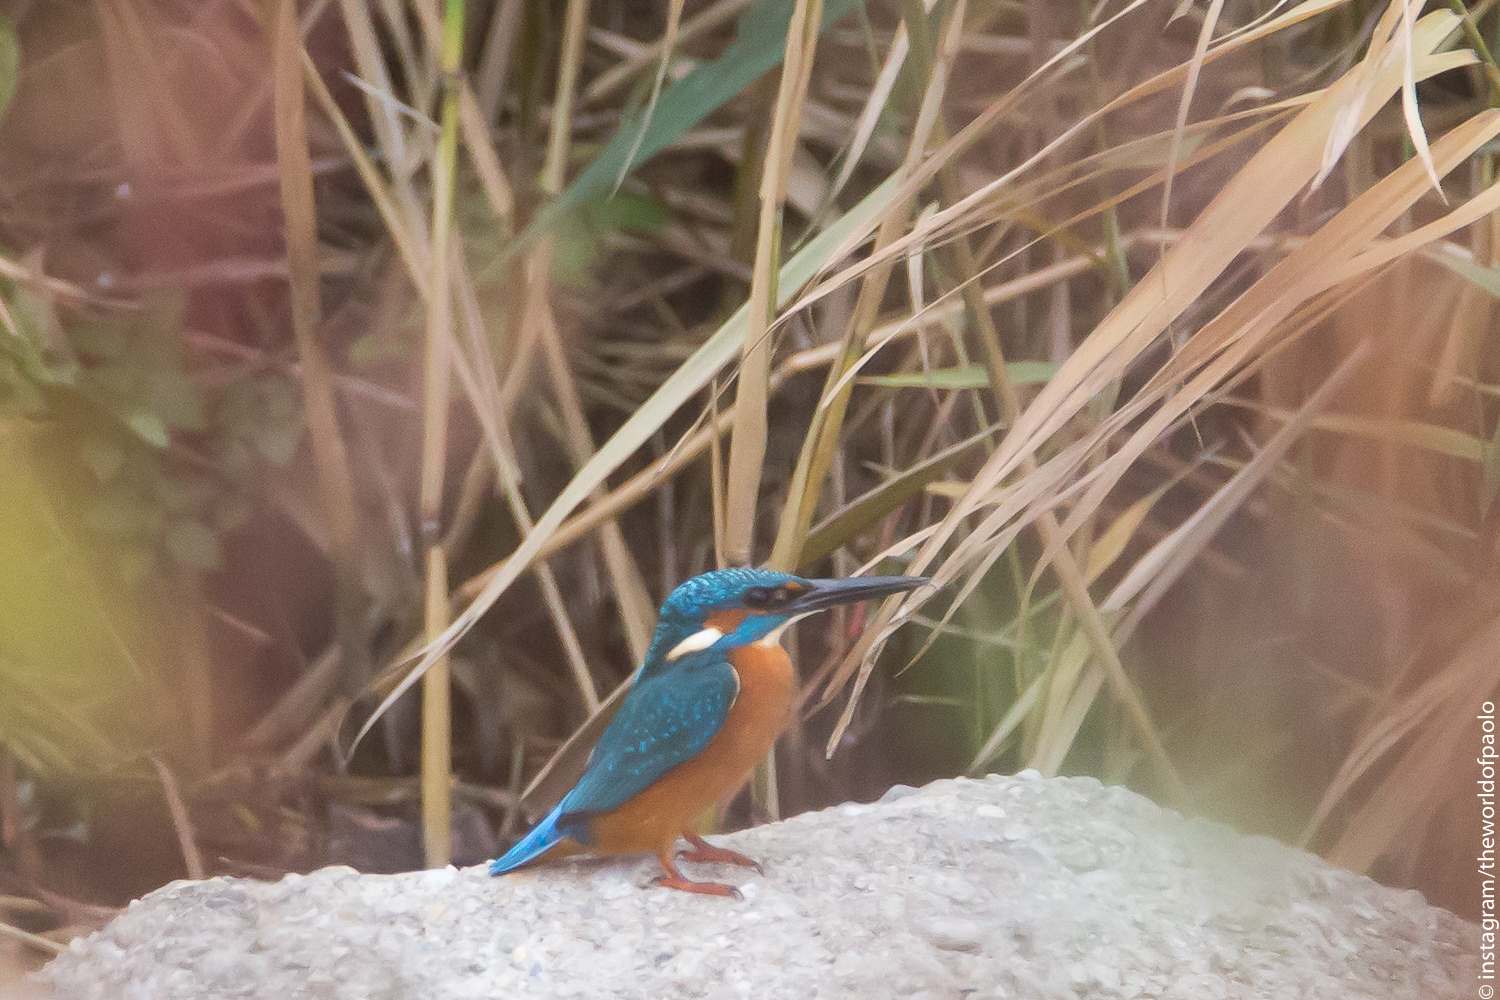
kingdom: Animalia
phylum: Chordata
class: Aves
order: Coraciiformes
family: Alcedinidae
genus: Alcedo
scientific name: Alcedo atthis
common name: Common kingfisher
